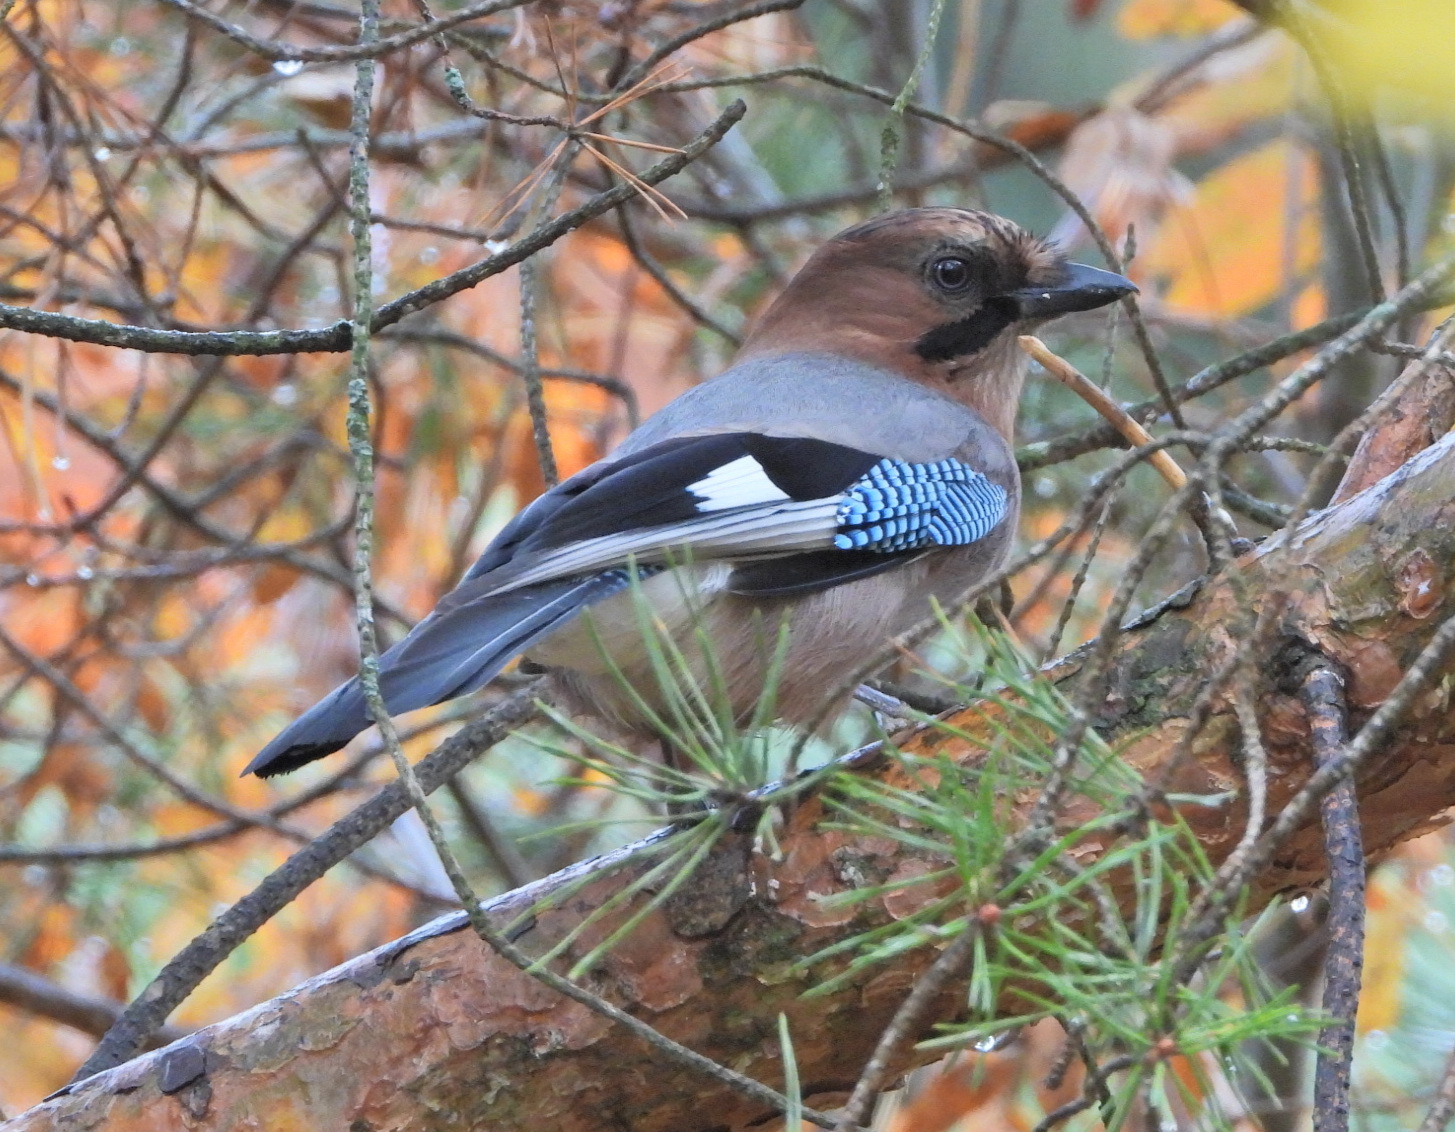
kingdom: Animalia
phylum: Chordata
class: Aves
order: Passeriformes
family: Corvidae
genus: Garrulus
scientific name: Garrulus glandarius
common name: Eurasian jay
